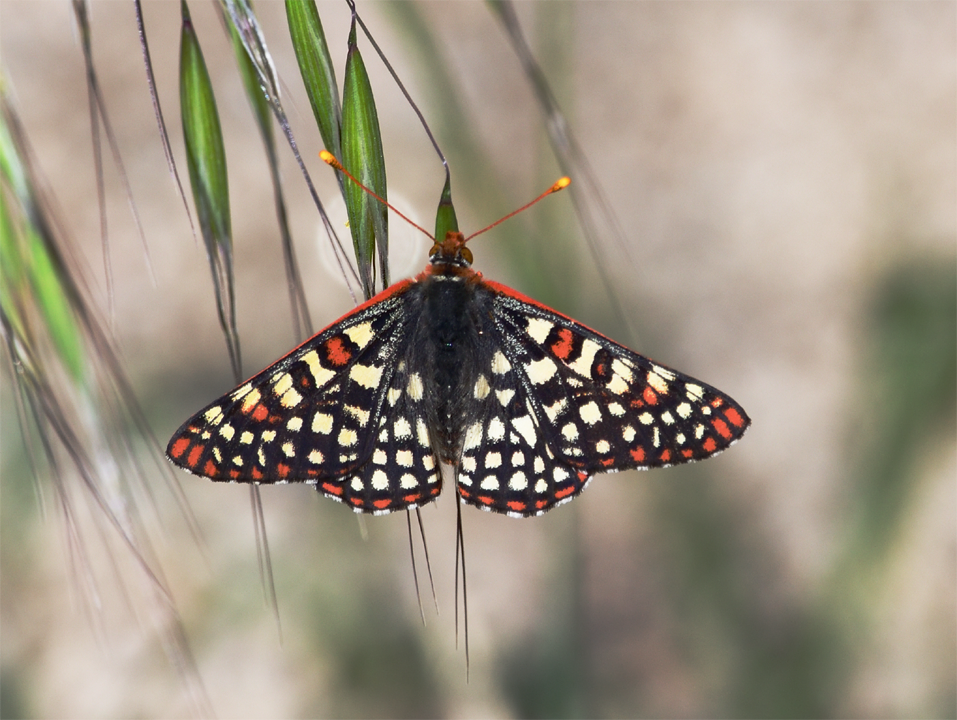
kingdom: Animalia
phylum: Arthropoda
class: Insecta
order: Lepidoptera
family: Nymphalidae
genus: Occidryas
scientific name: Occidryas chalcedona
